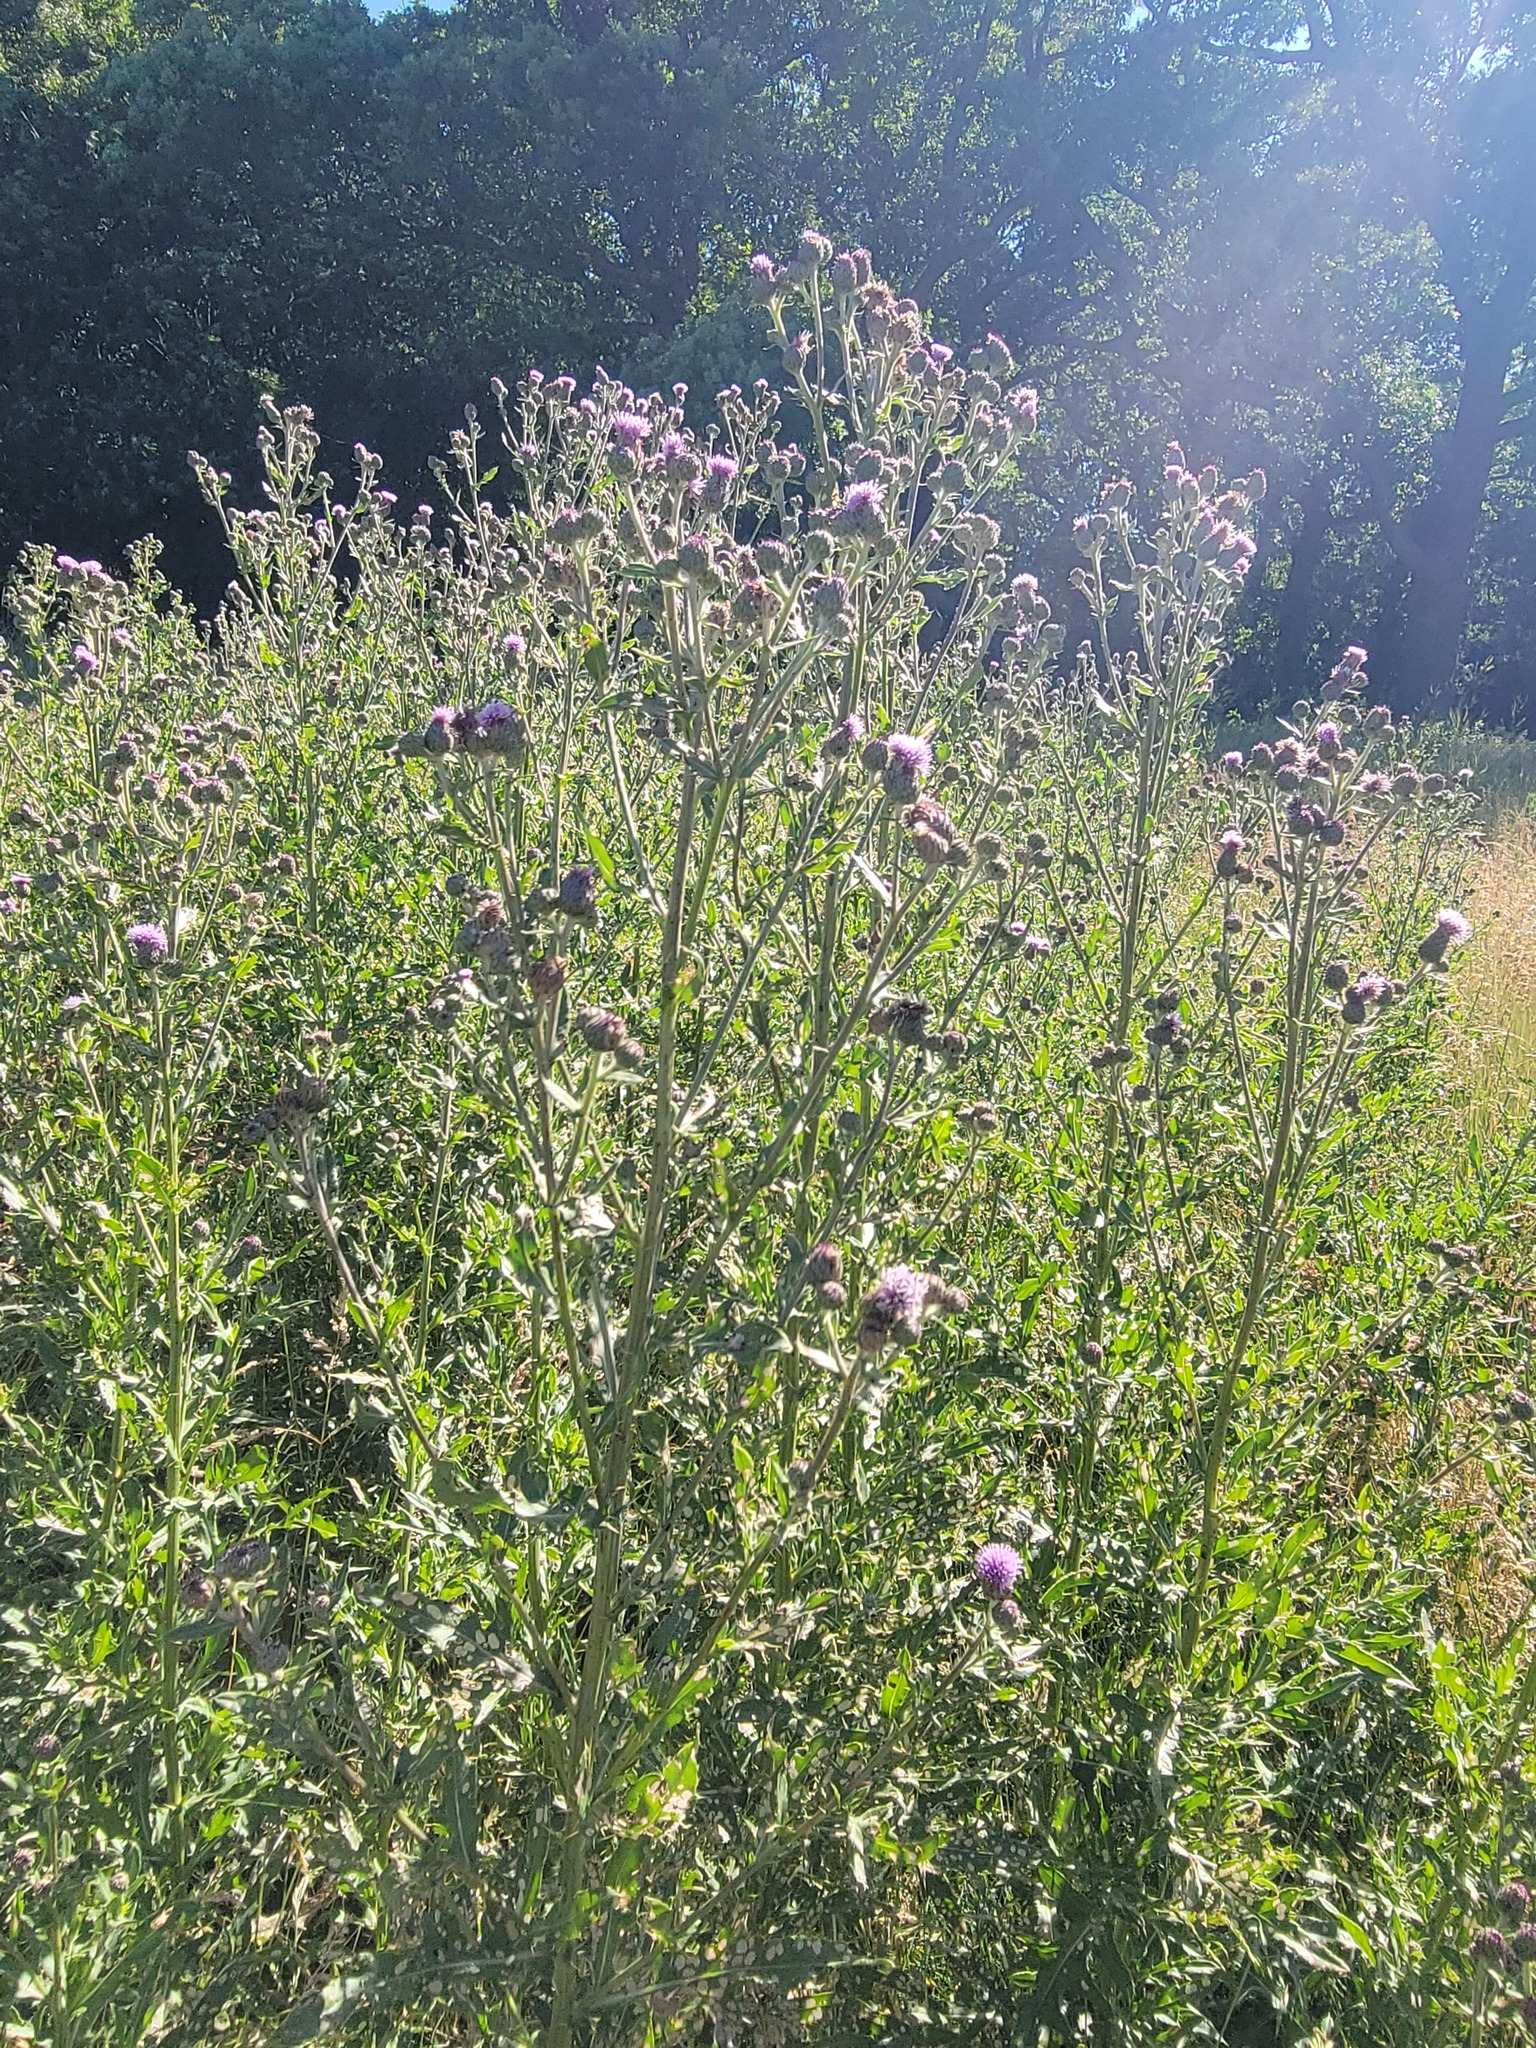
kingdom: Plantae
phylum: Tracheophyta
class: Magnoliopsida
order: Asterales
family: Asteraceae
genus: Cirsium
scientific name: Cirsium arvense
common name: Creeping thistle
